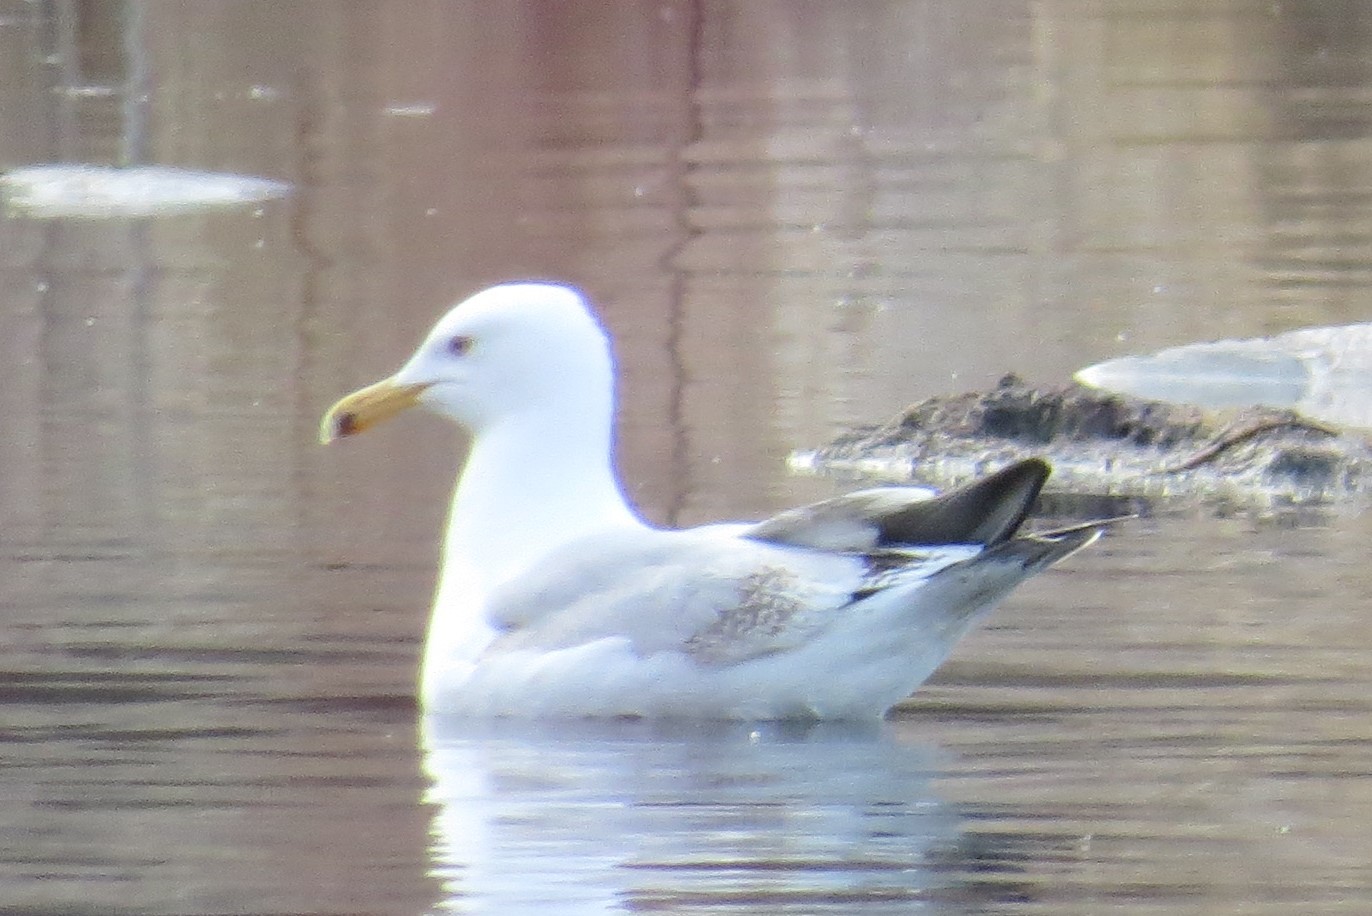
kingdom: Animalia
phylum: Chordata
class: Aves
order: Charadriiformes
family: Laridae
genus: Larus
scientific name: Larus argentatus
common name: Herring gull
